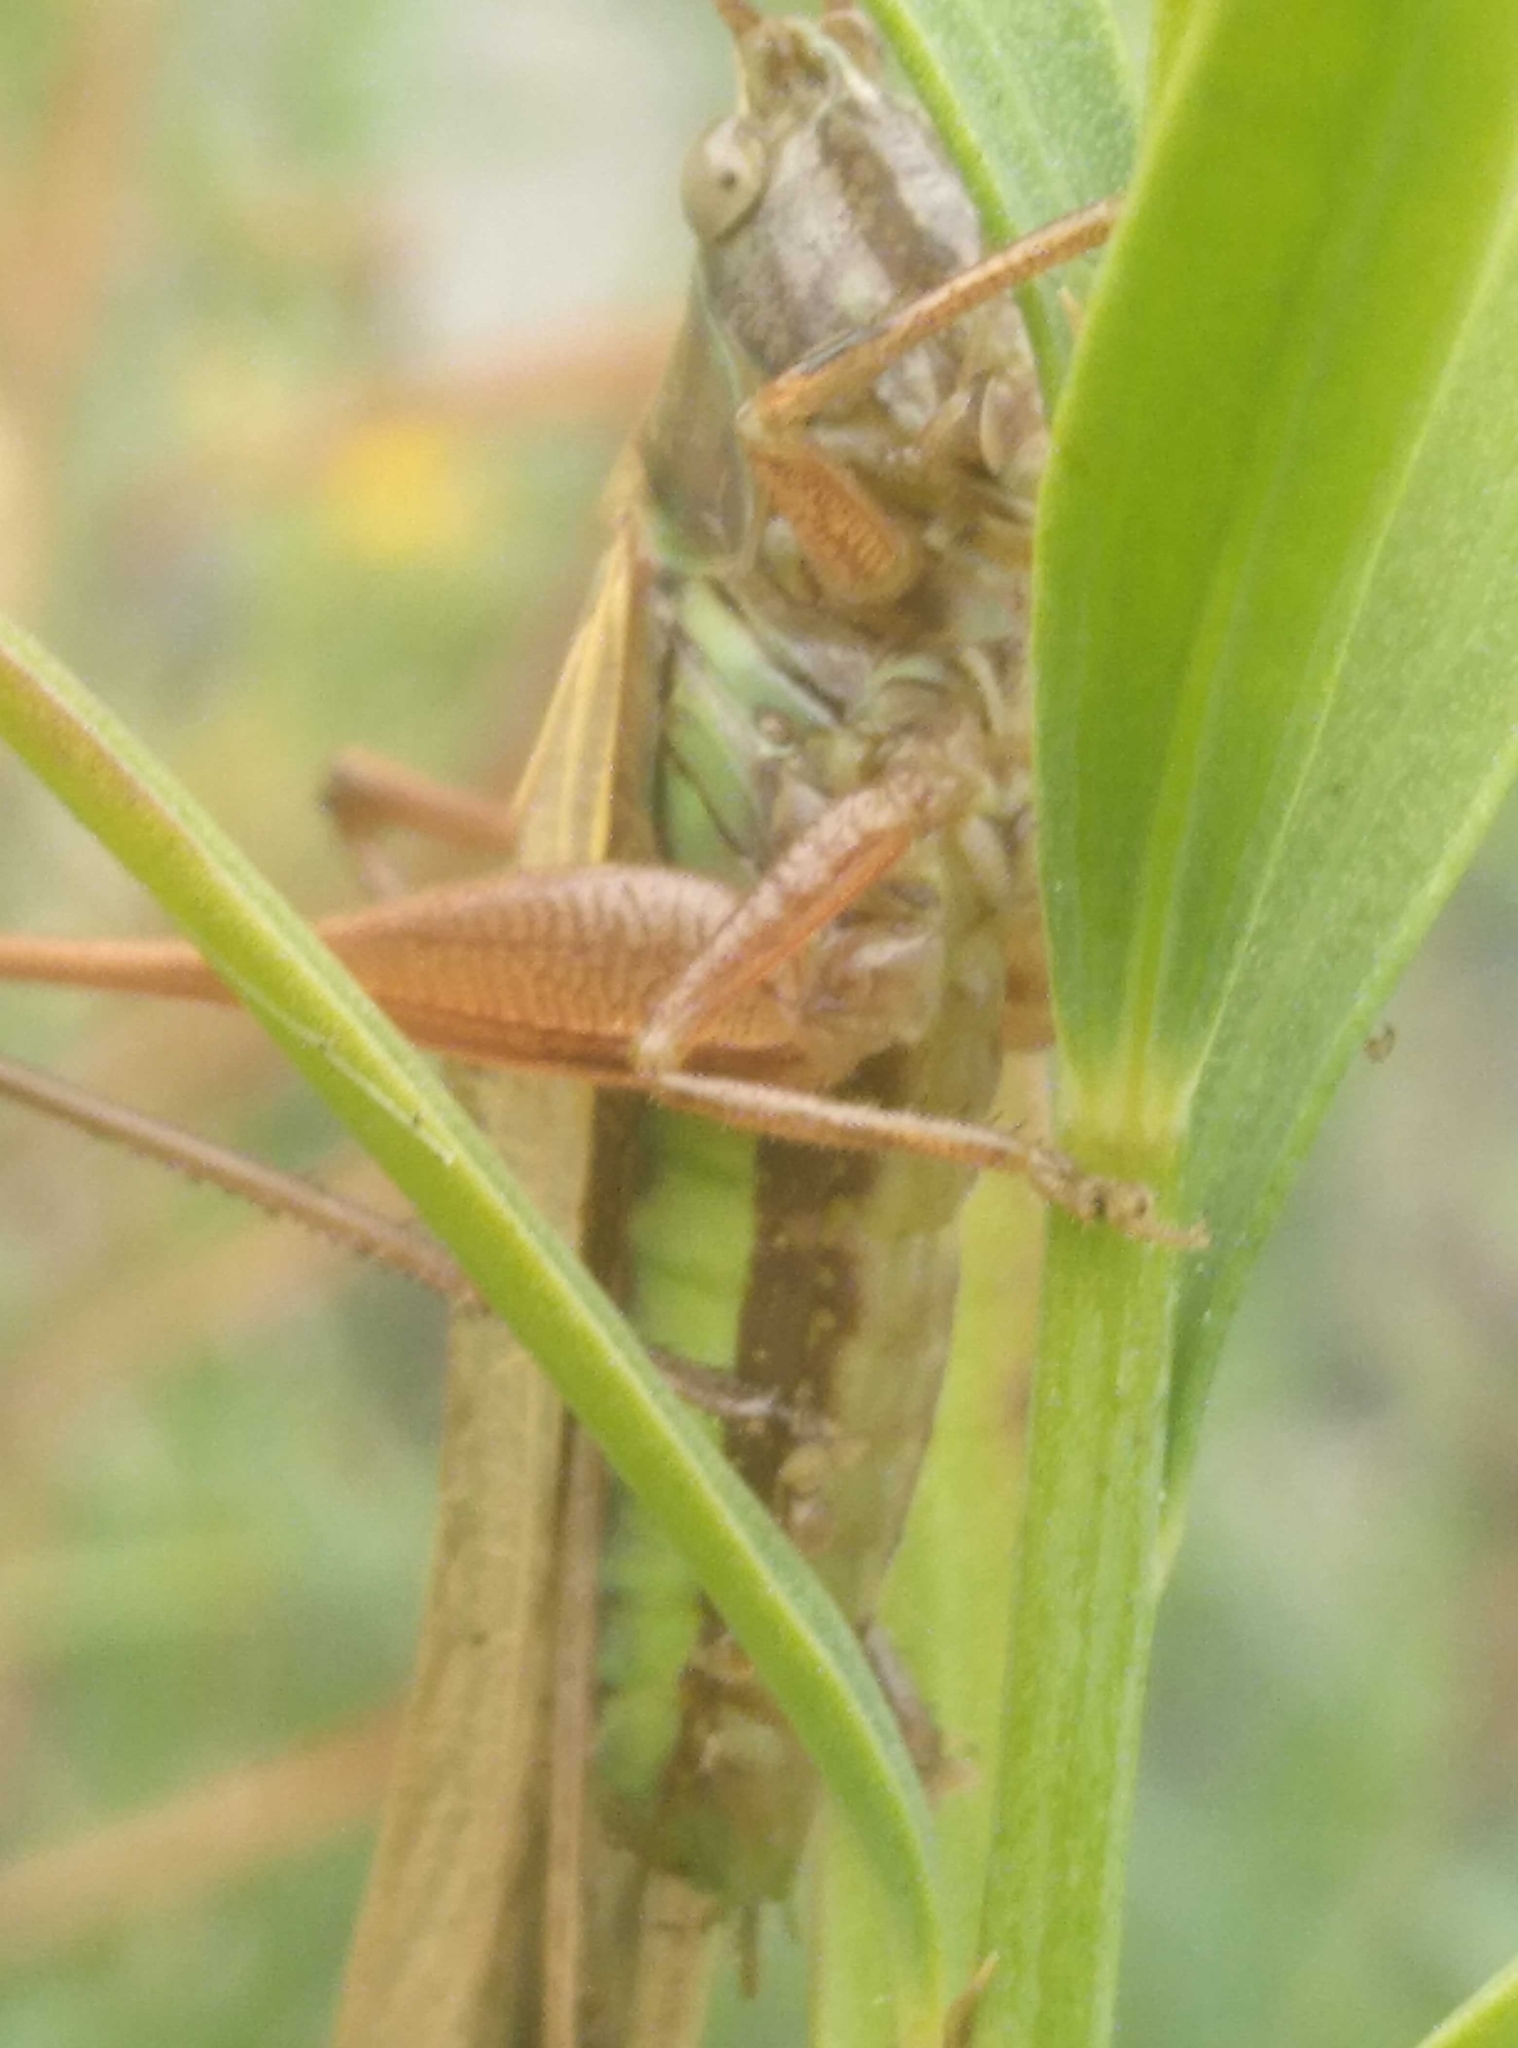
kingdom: Animalia
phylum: Arthropoda
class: Insecta
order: Orthoptera
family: Tettigoniidae
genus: Conocephalus
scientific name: Conocephalus albescens
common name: Whitish meadow katydid
